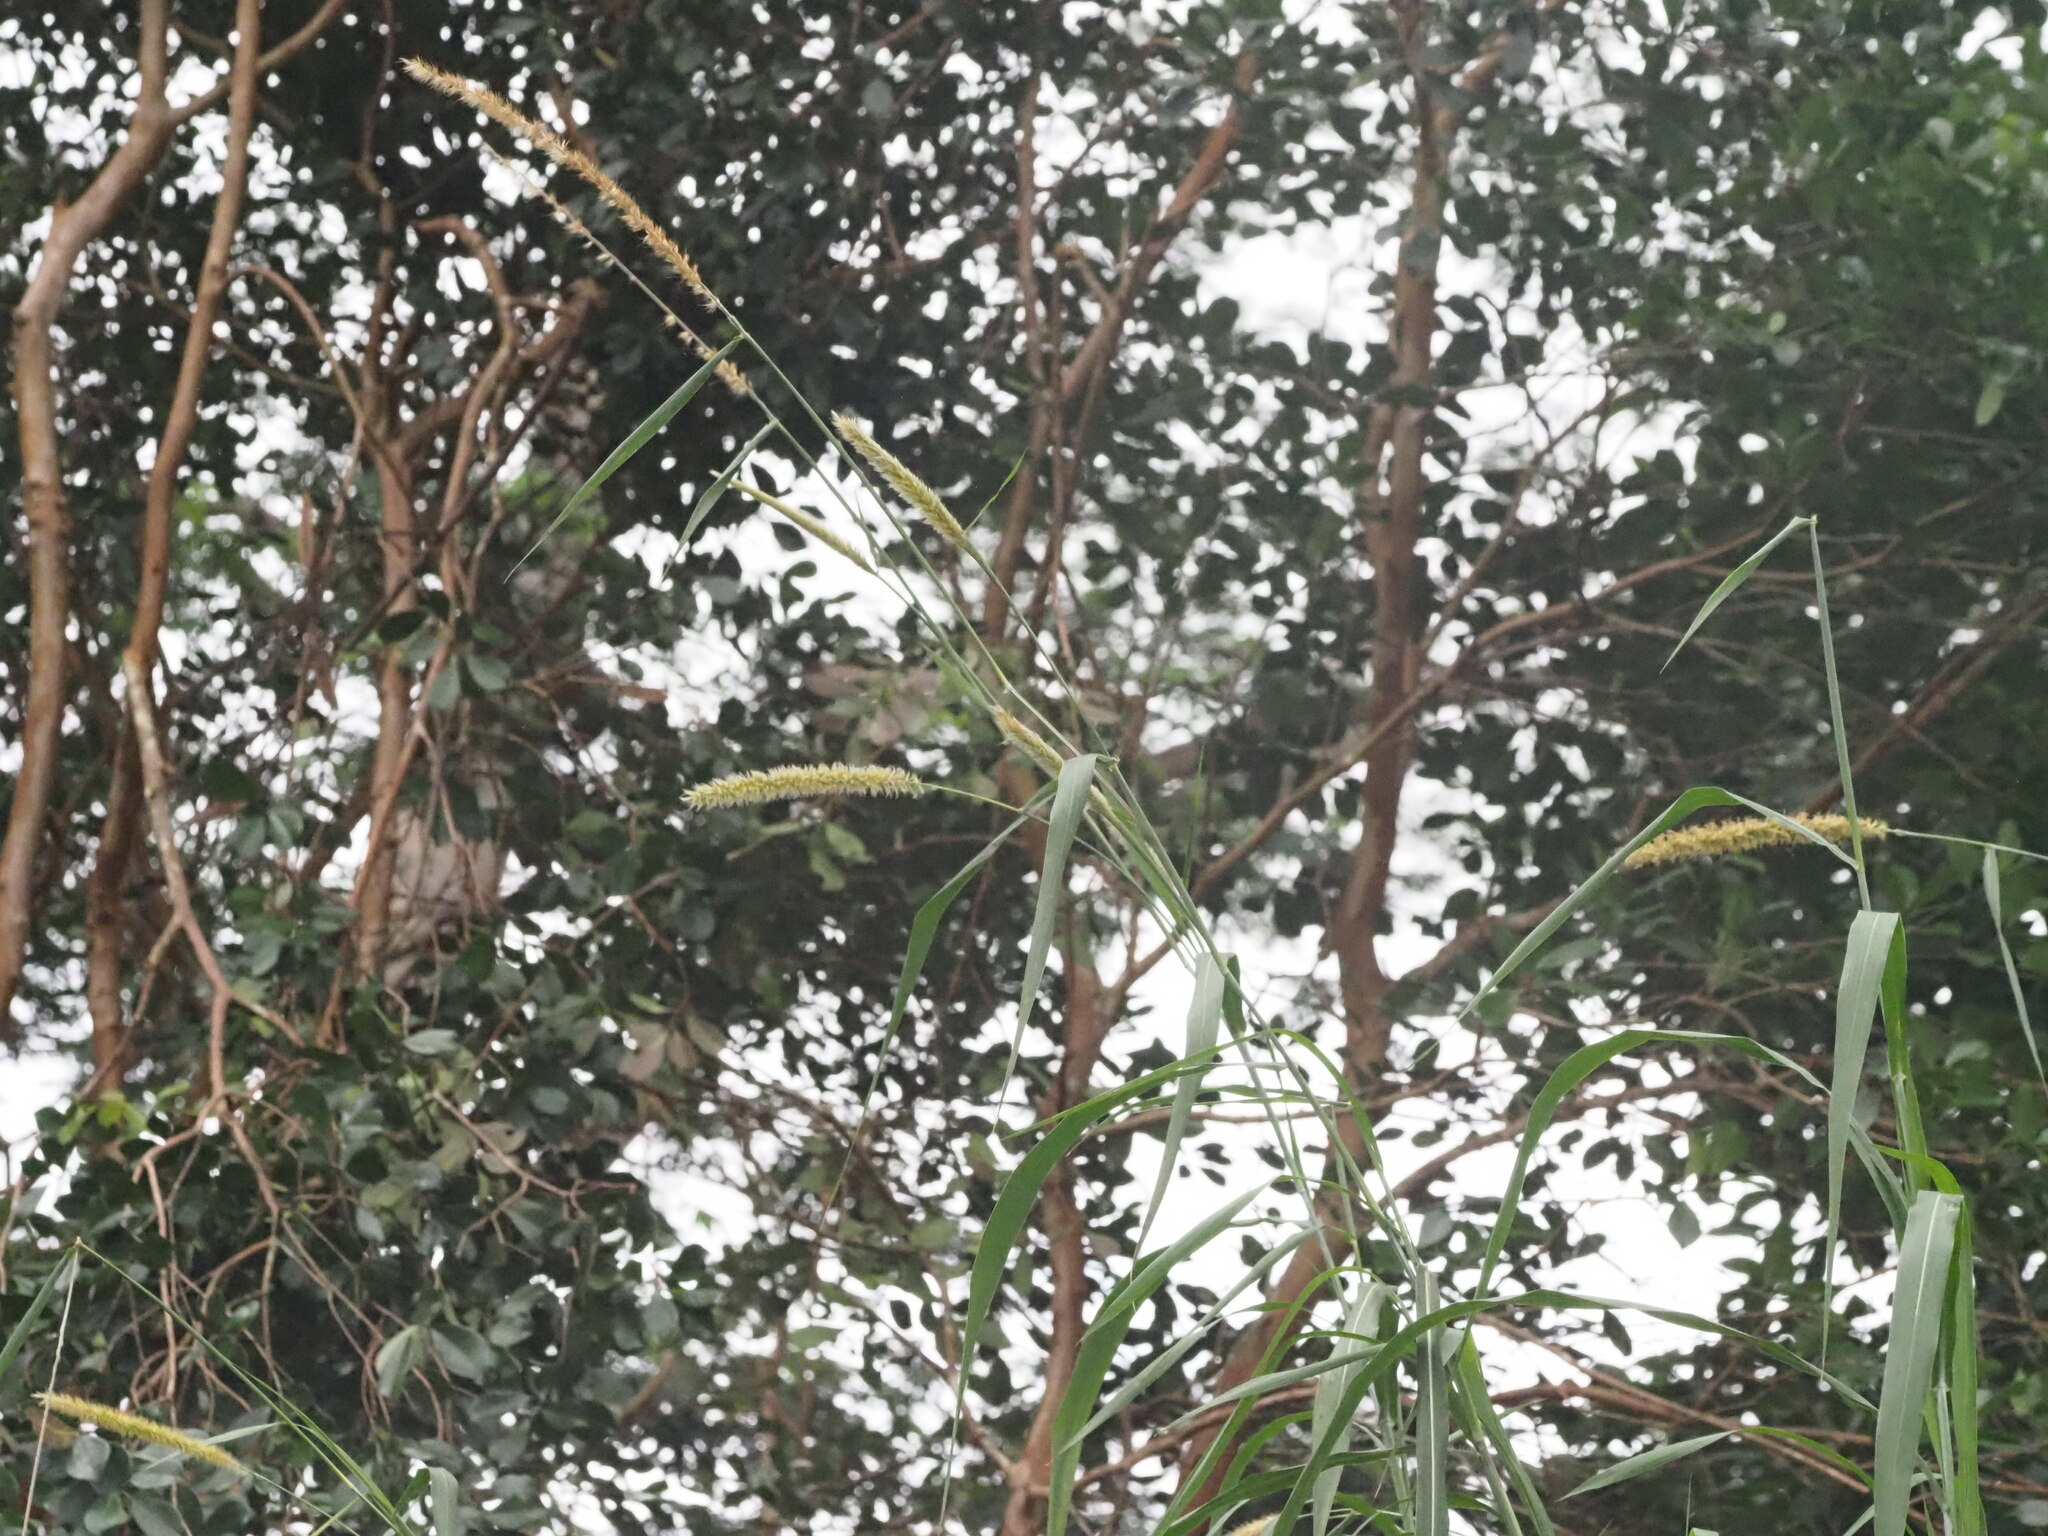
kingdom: Plantae
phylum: Tracheophyta
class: Liliopsida
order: Poales
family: Poaceae
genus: Cenchrus
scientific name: Cenchrus purpureus
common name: Elephant grass
